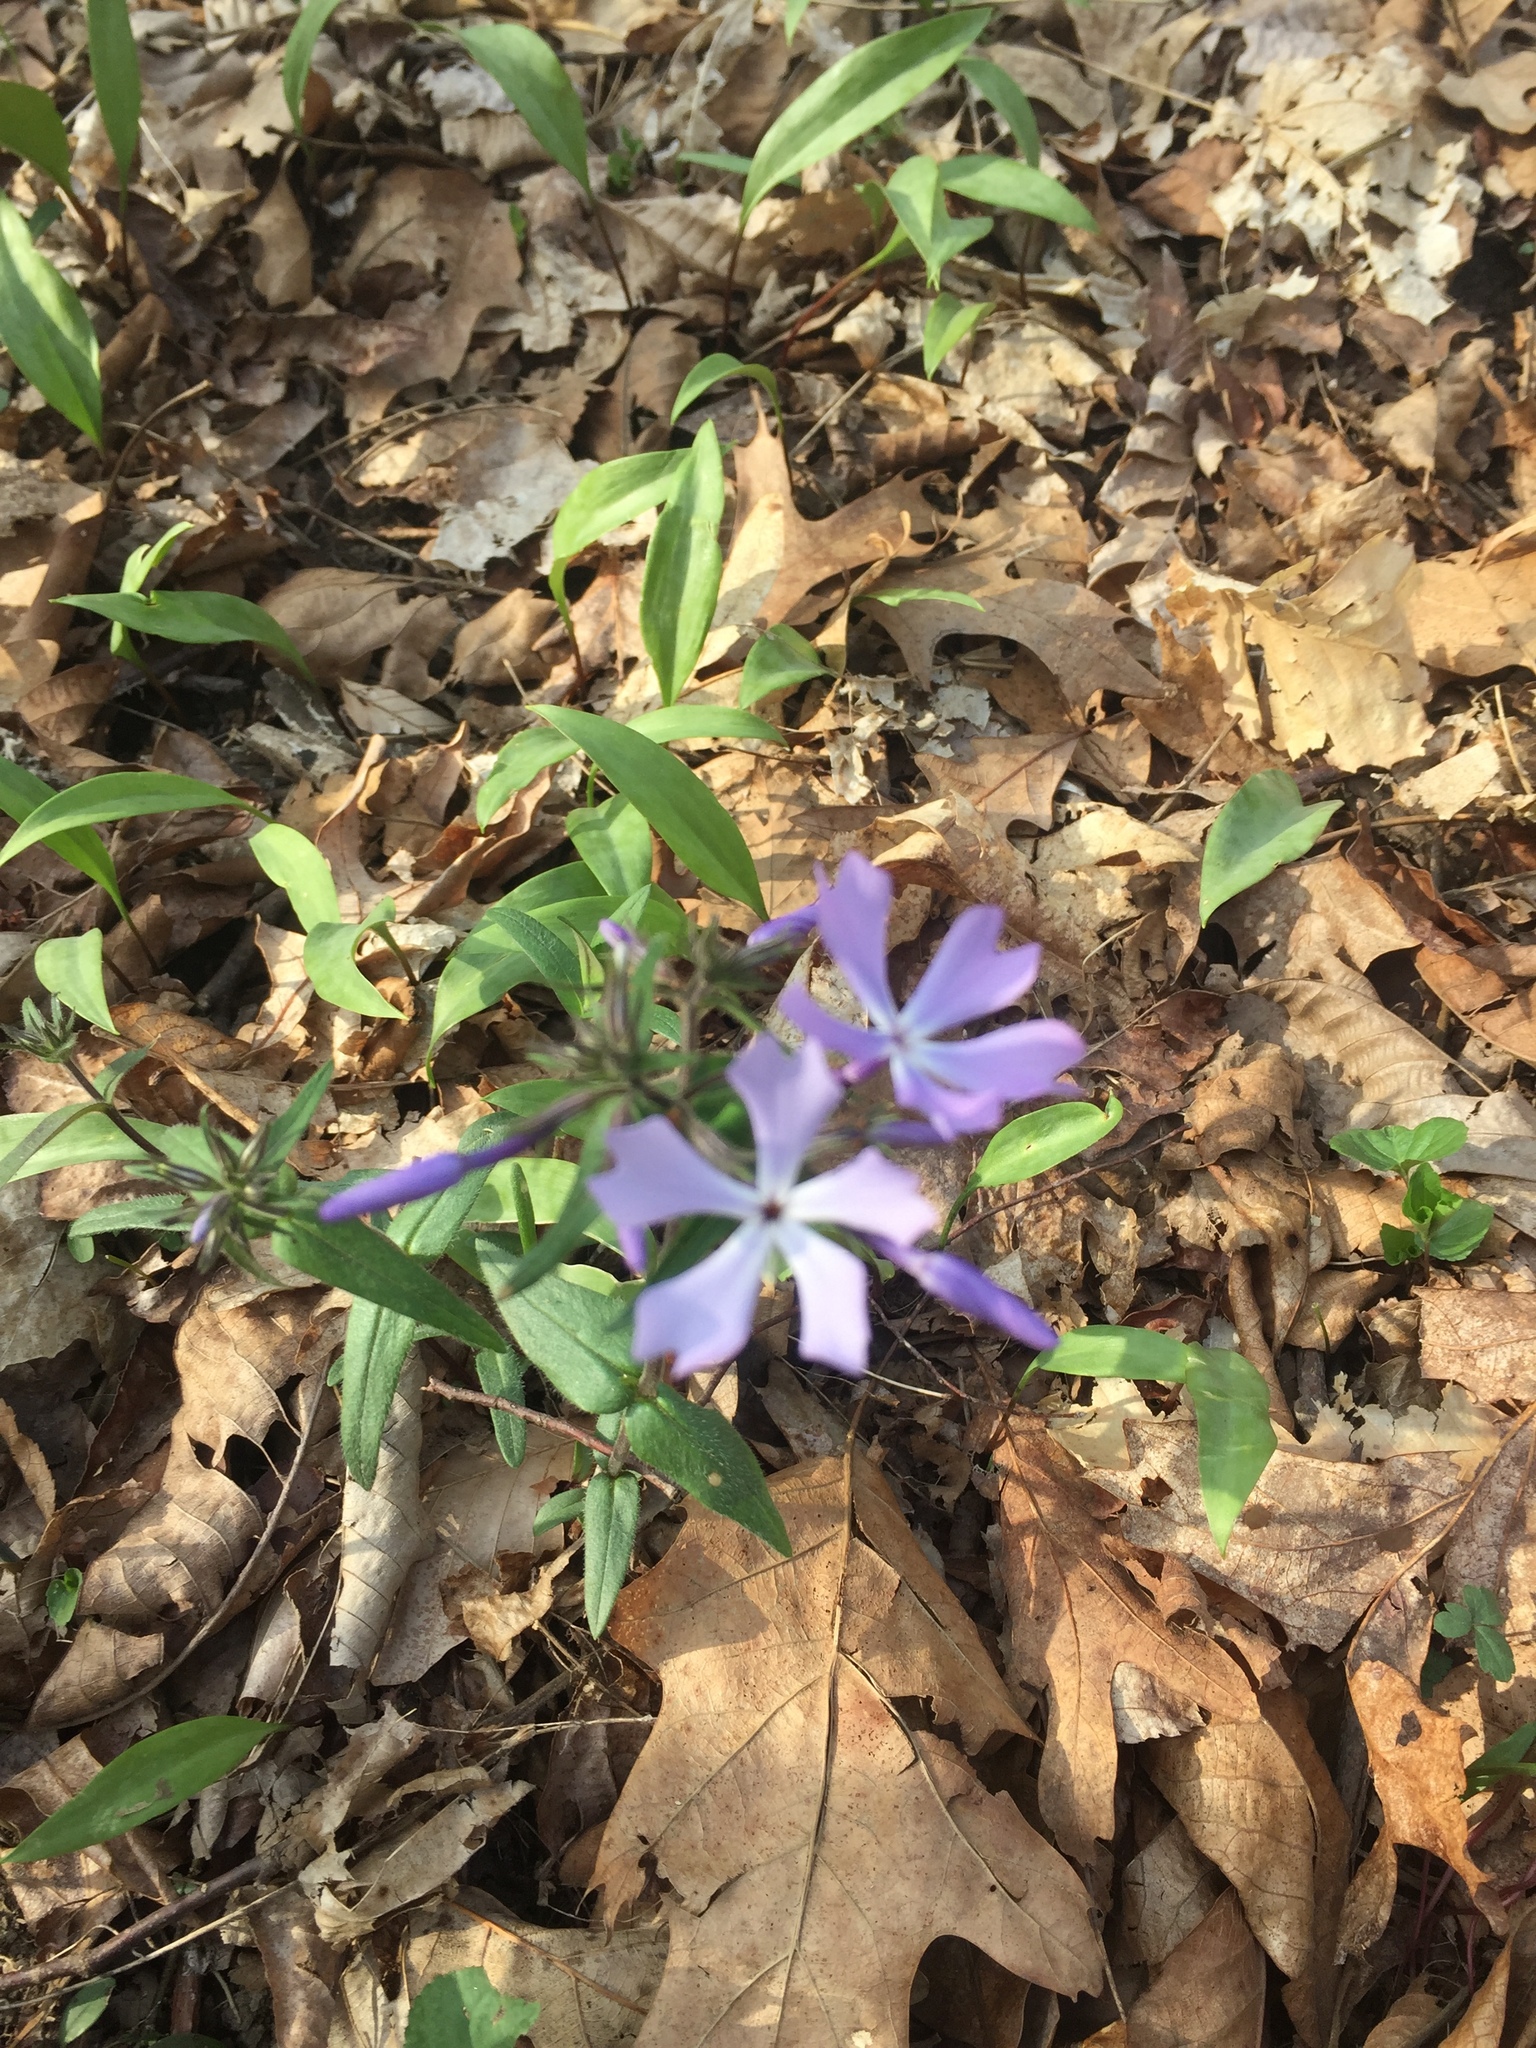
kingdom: Plantae
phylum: Tracheophyta
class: Magnoliopsida
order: Ericales
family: Polemoniaceae
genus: Phlox
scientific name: Phlox divaricata
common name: Blue phlox
